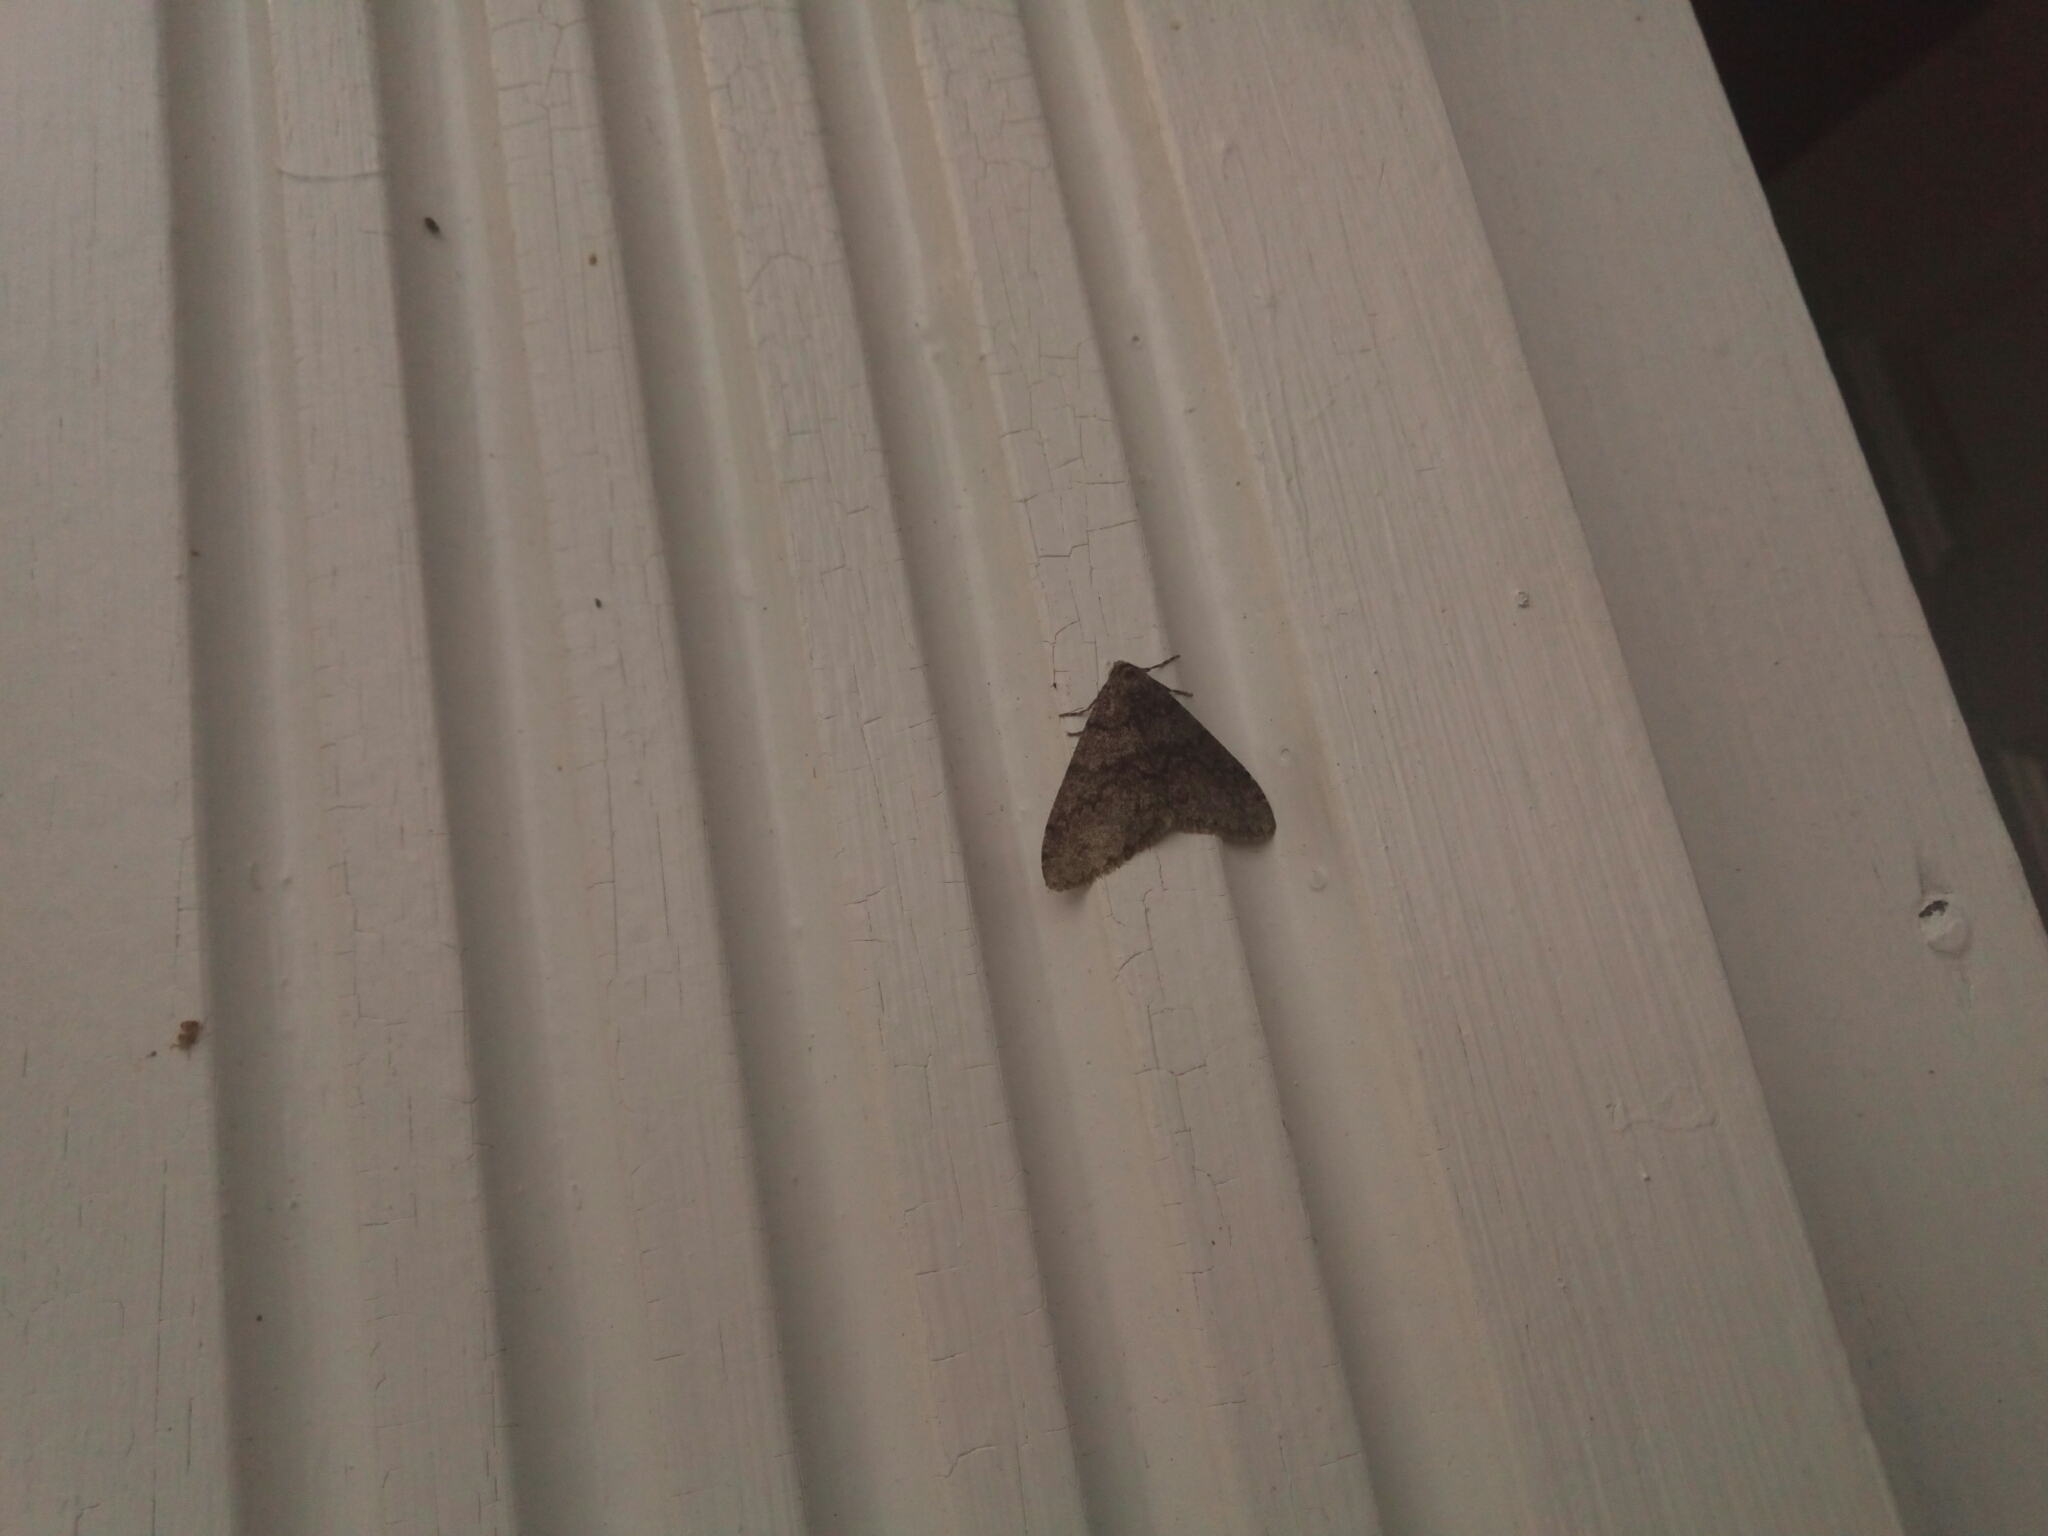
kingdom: Animalia
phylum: Arthropoda
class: Insecta
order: Lepidoptera
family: Geometridae
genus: Phigalia
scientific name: Phigalia denticulata
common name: Toothed phigalia
